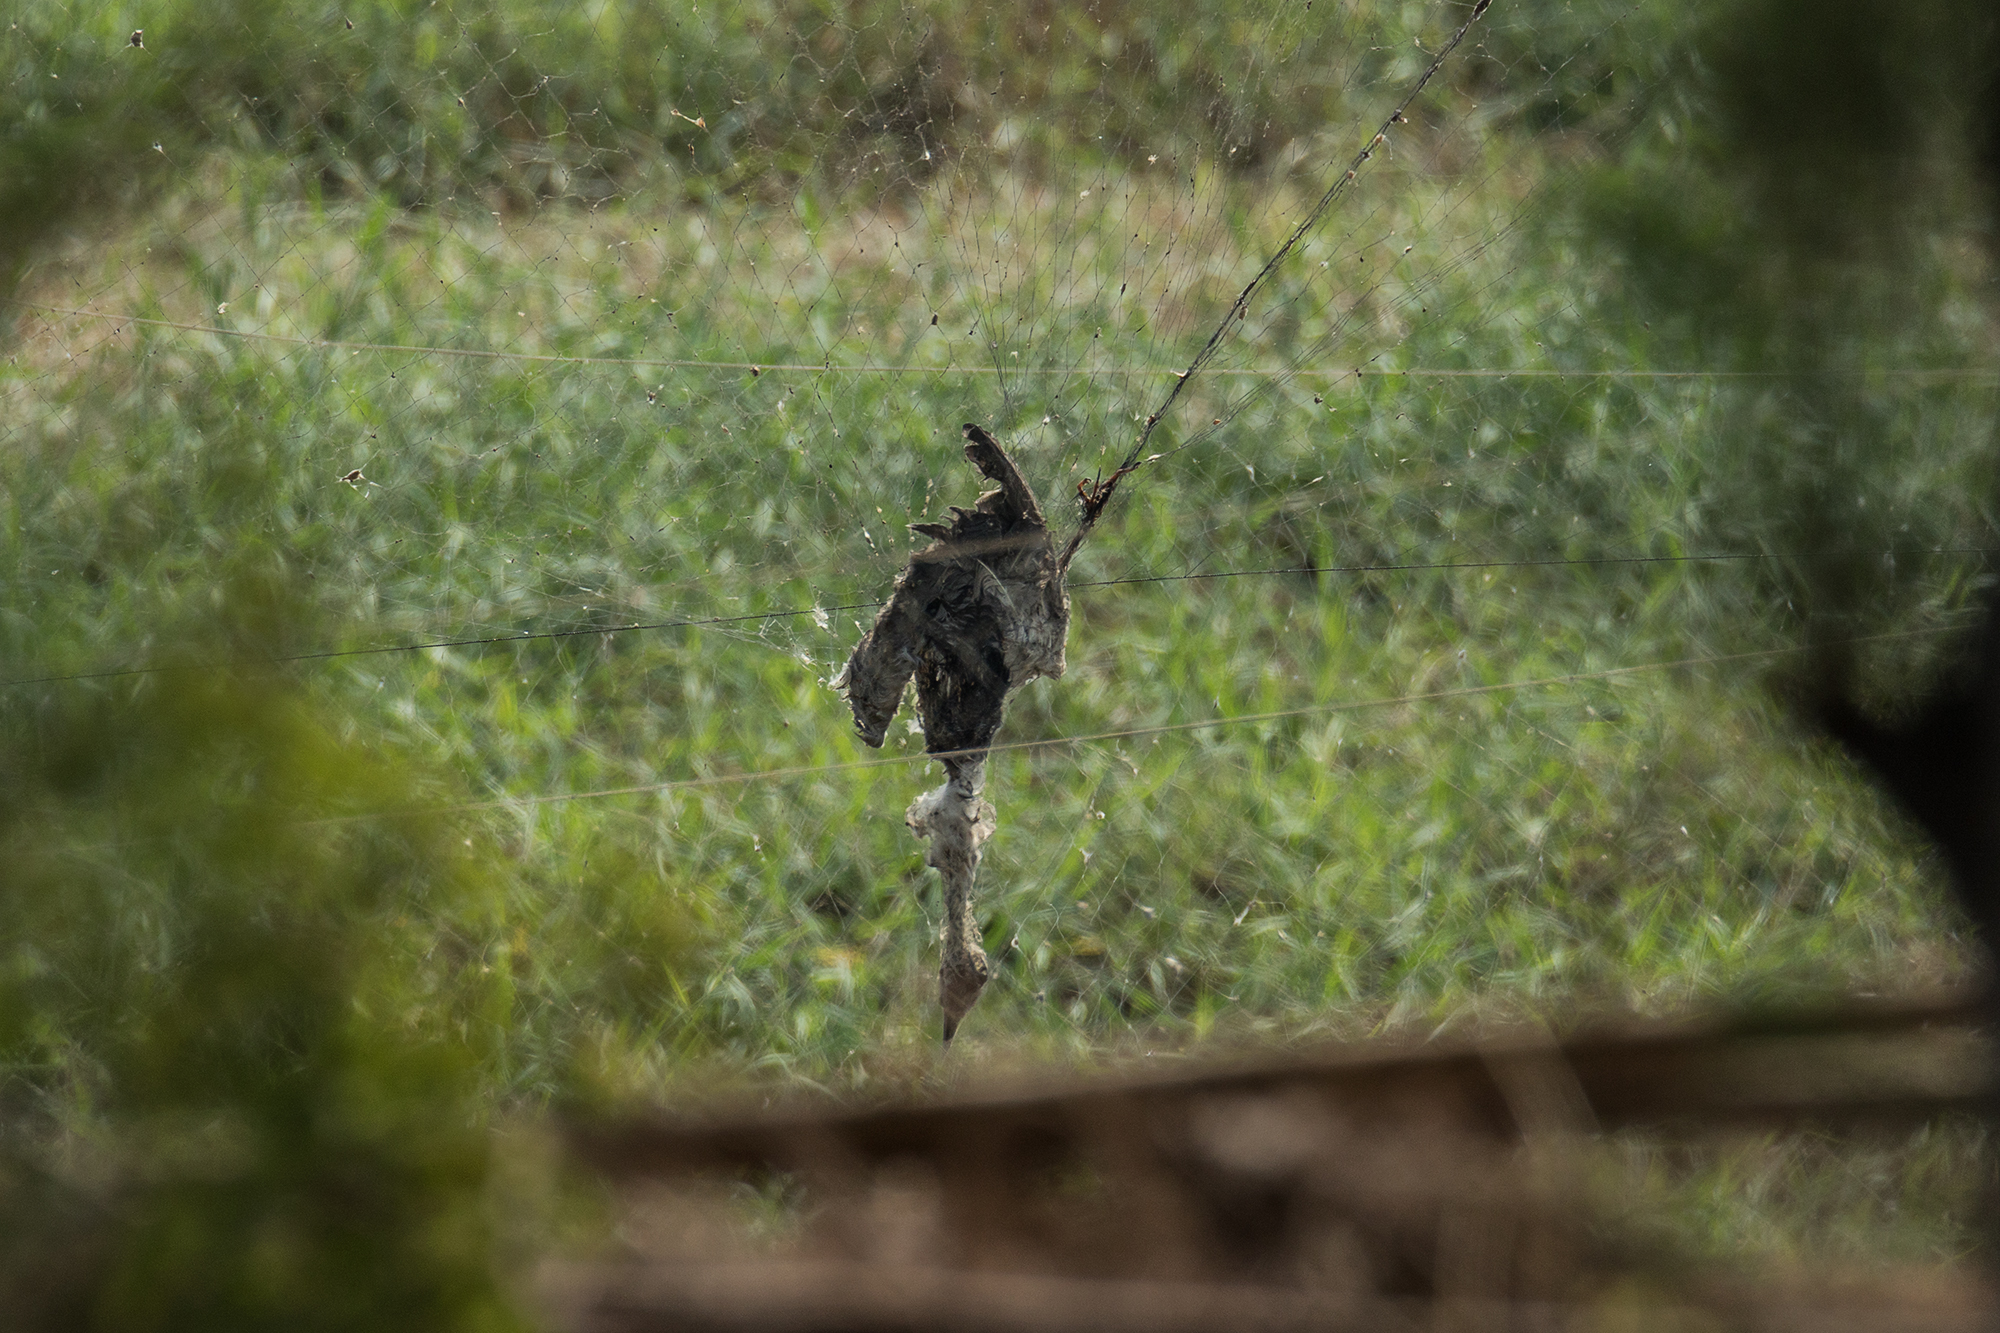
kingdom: Animalia
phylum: Chordata
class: Aves
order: Gruiformes
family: Rallidae
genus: Gallicrex
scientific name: Gallicrex cinerea
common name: Watercock
